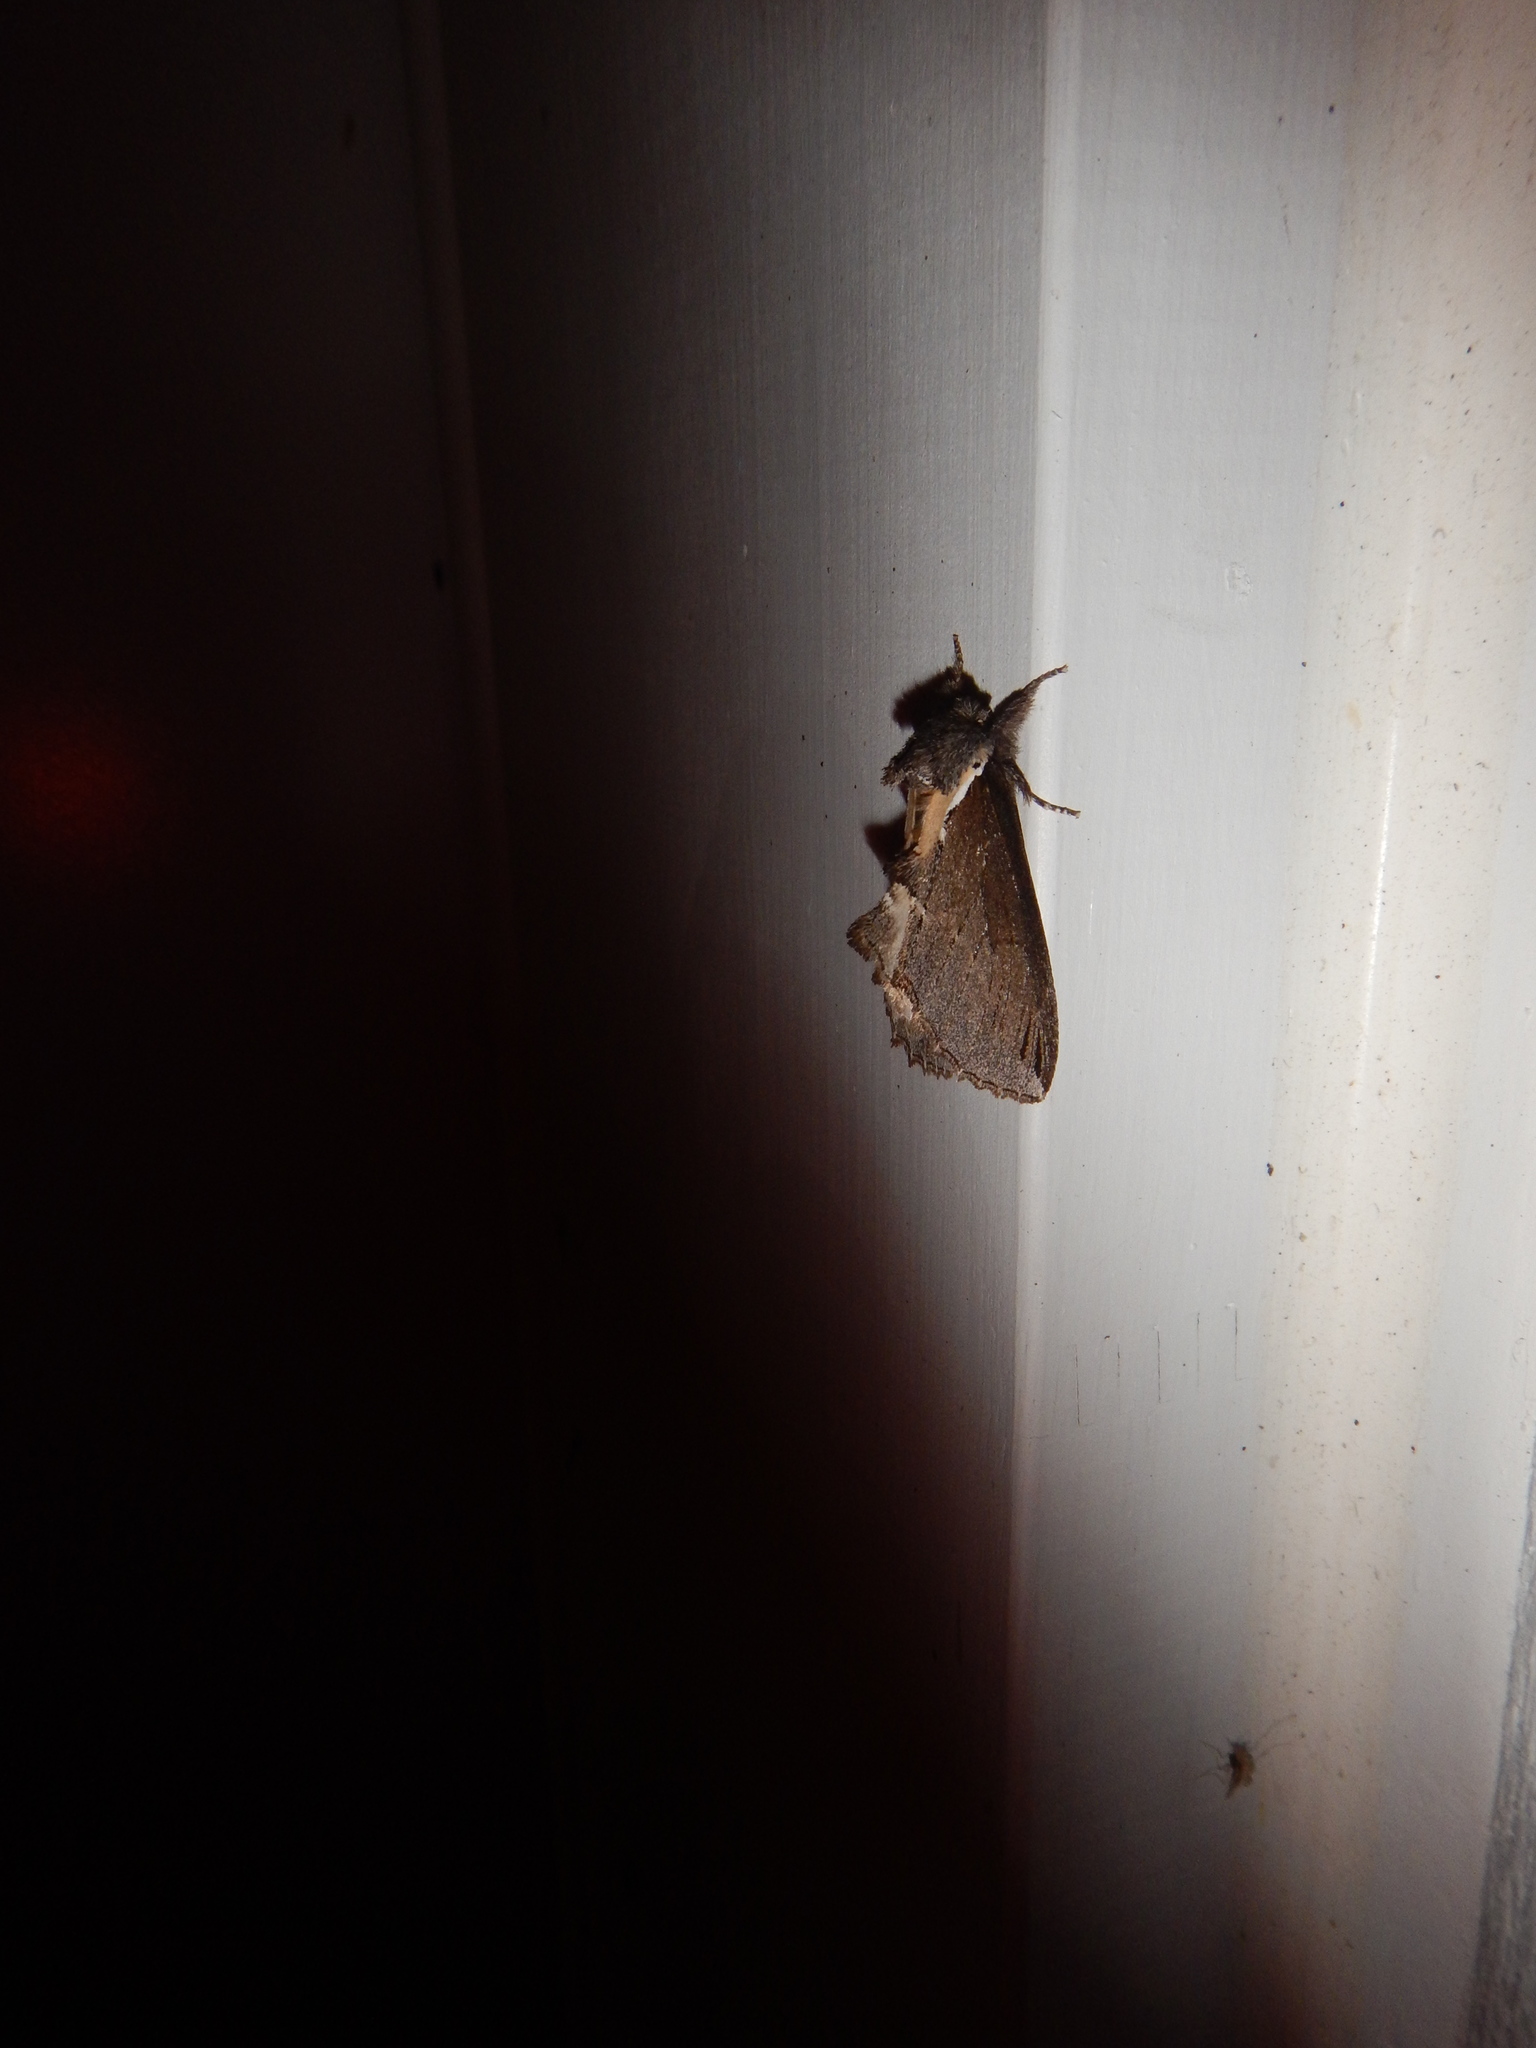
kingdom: Animalia
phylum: Arthropoda
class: Insecta
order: Lepidoptera
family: Notodontidae
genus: Pheosidea
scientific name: Pheosidea elegans
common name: Elegant prominent
